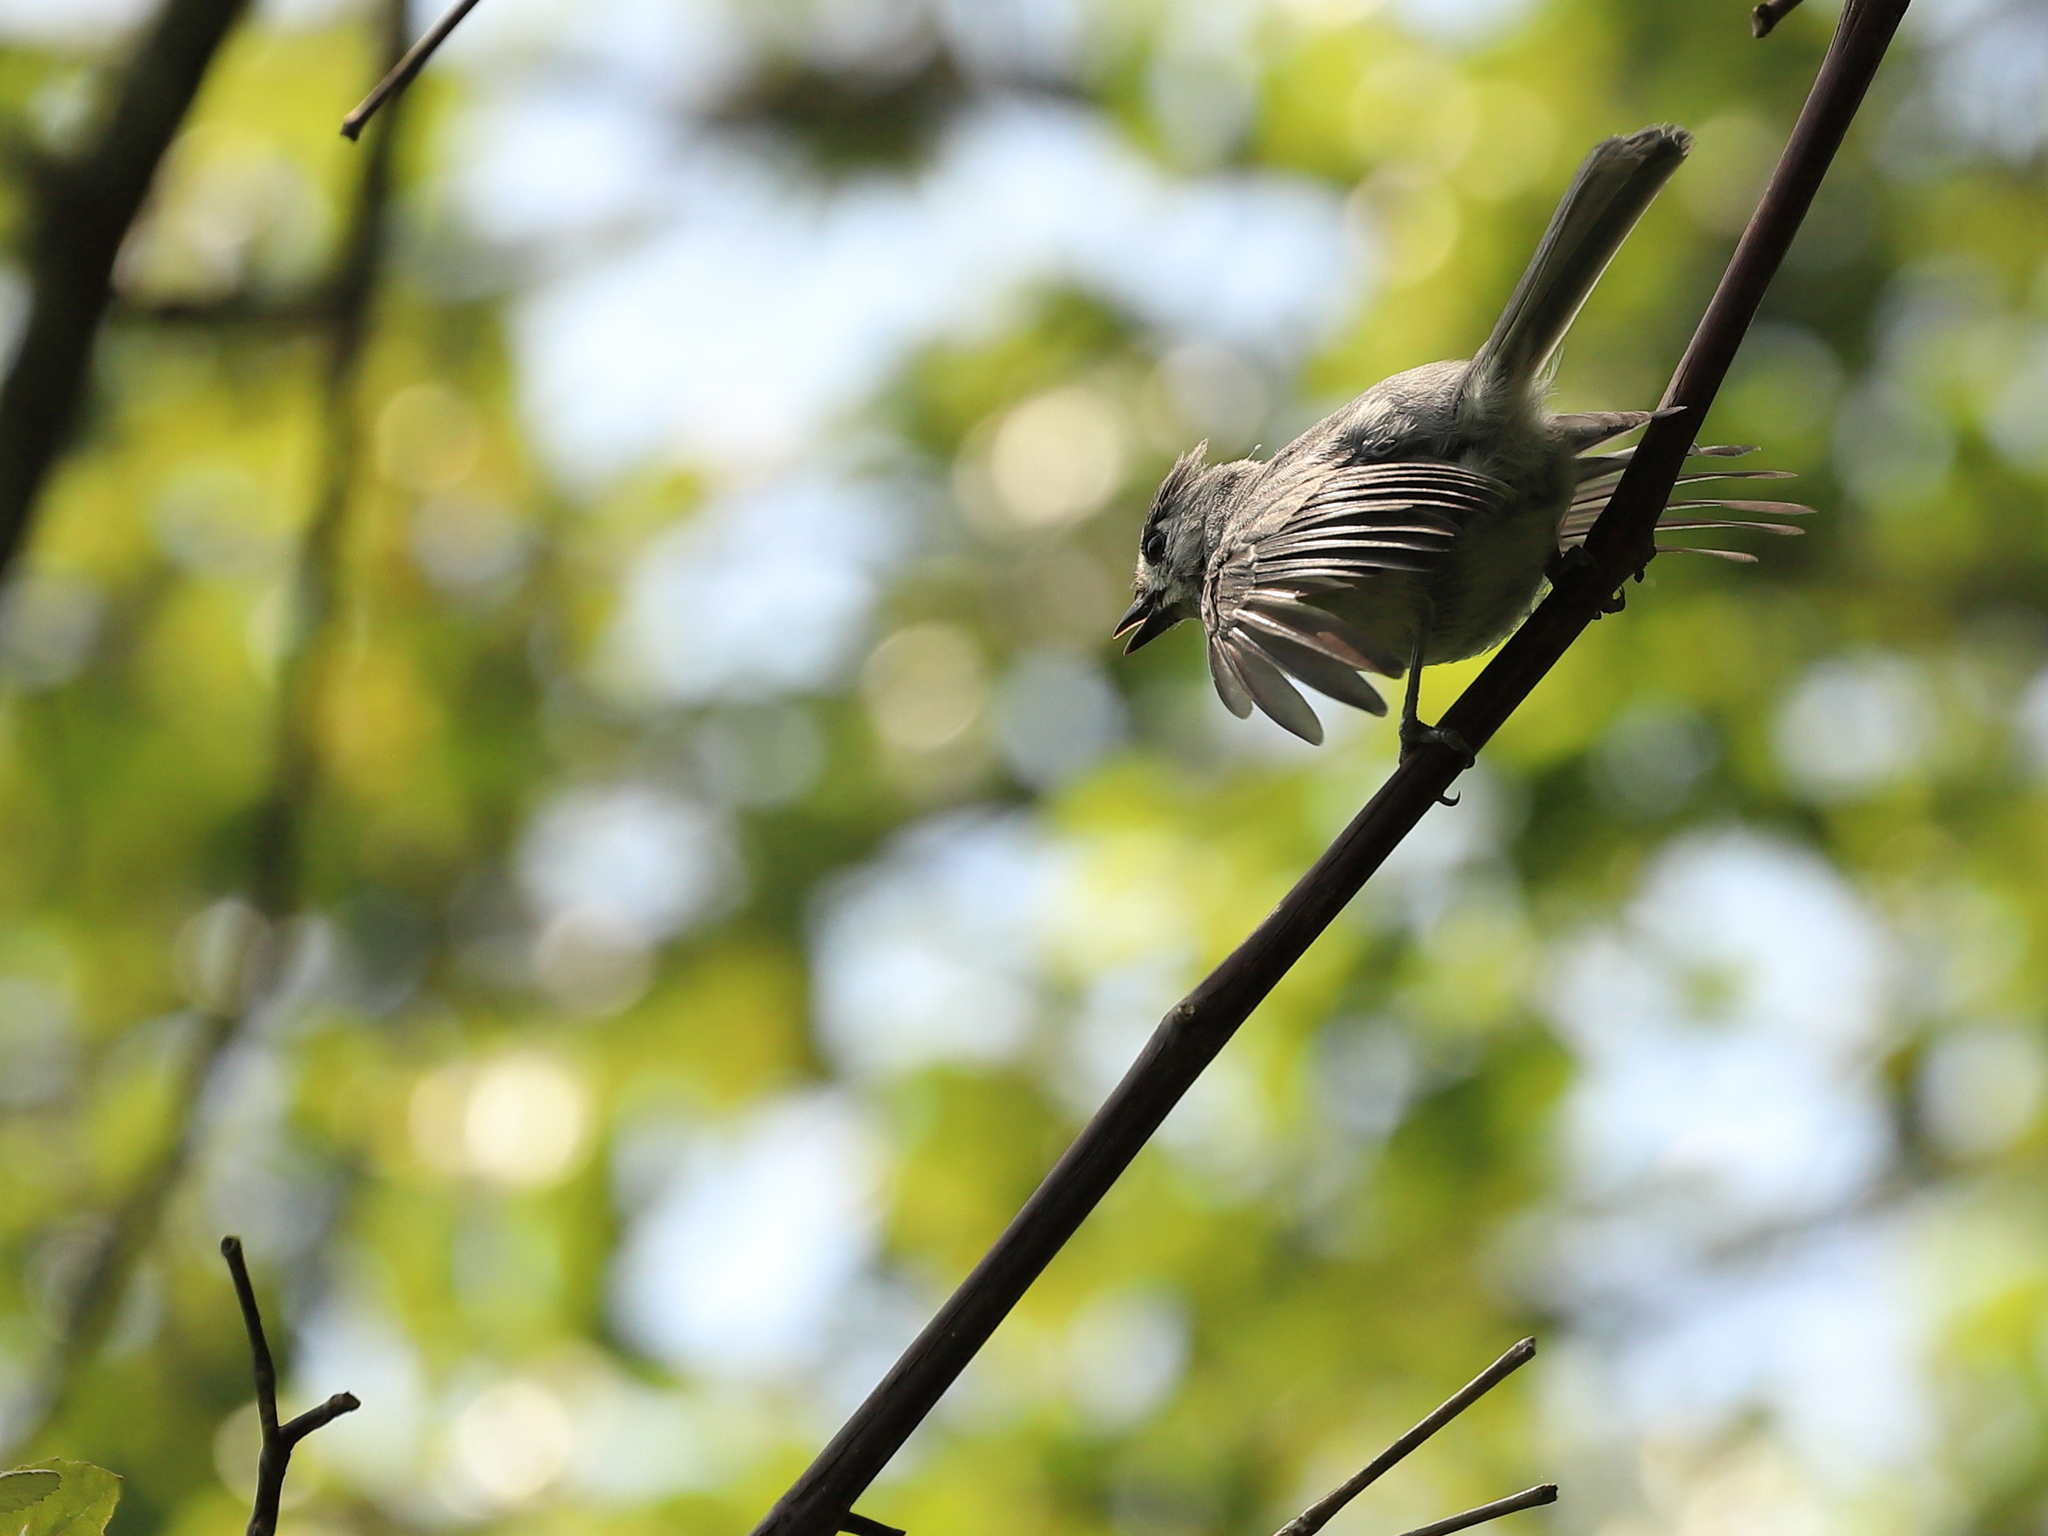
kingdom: Animalia
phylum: Chordata
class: Aves
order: Passeriformes
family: Paridae
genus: Baeolophus
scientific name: Baeolophus bicolor
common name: Tufted titmouse
